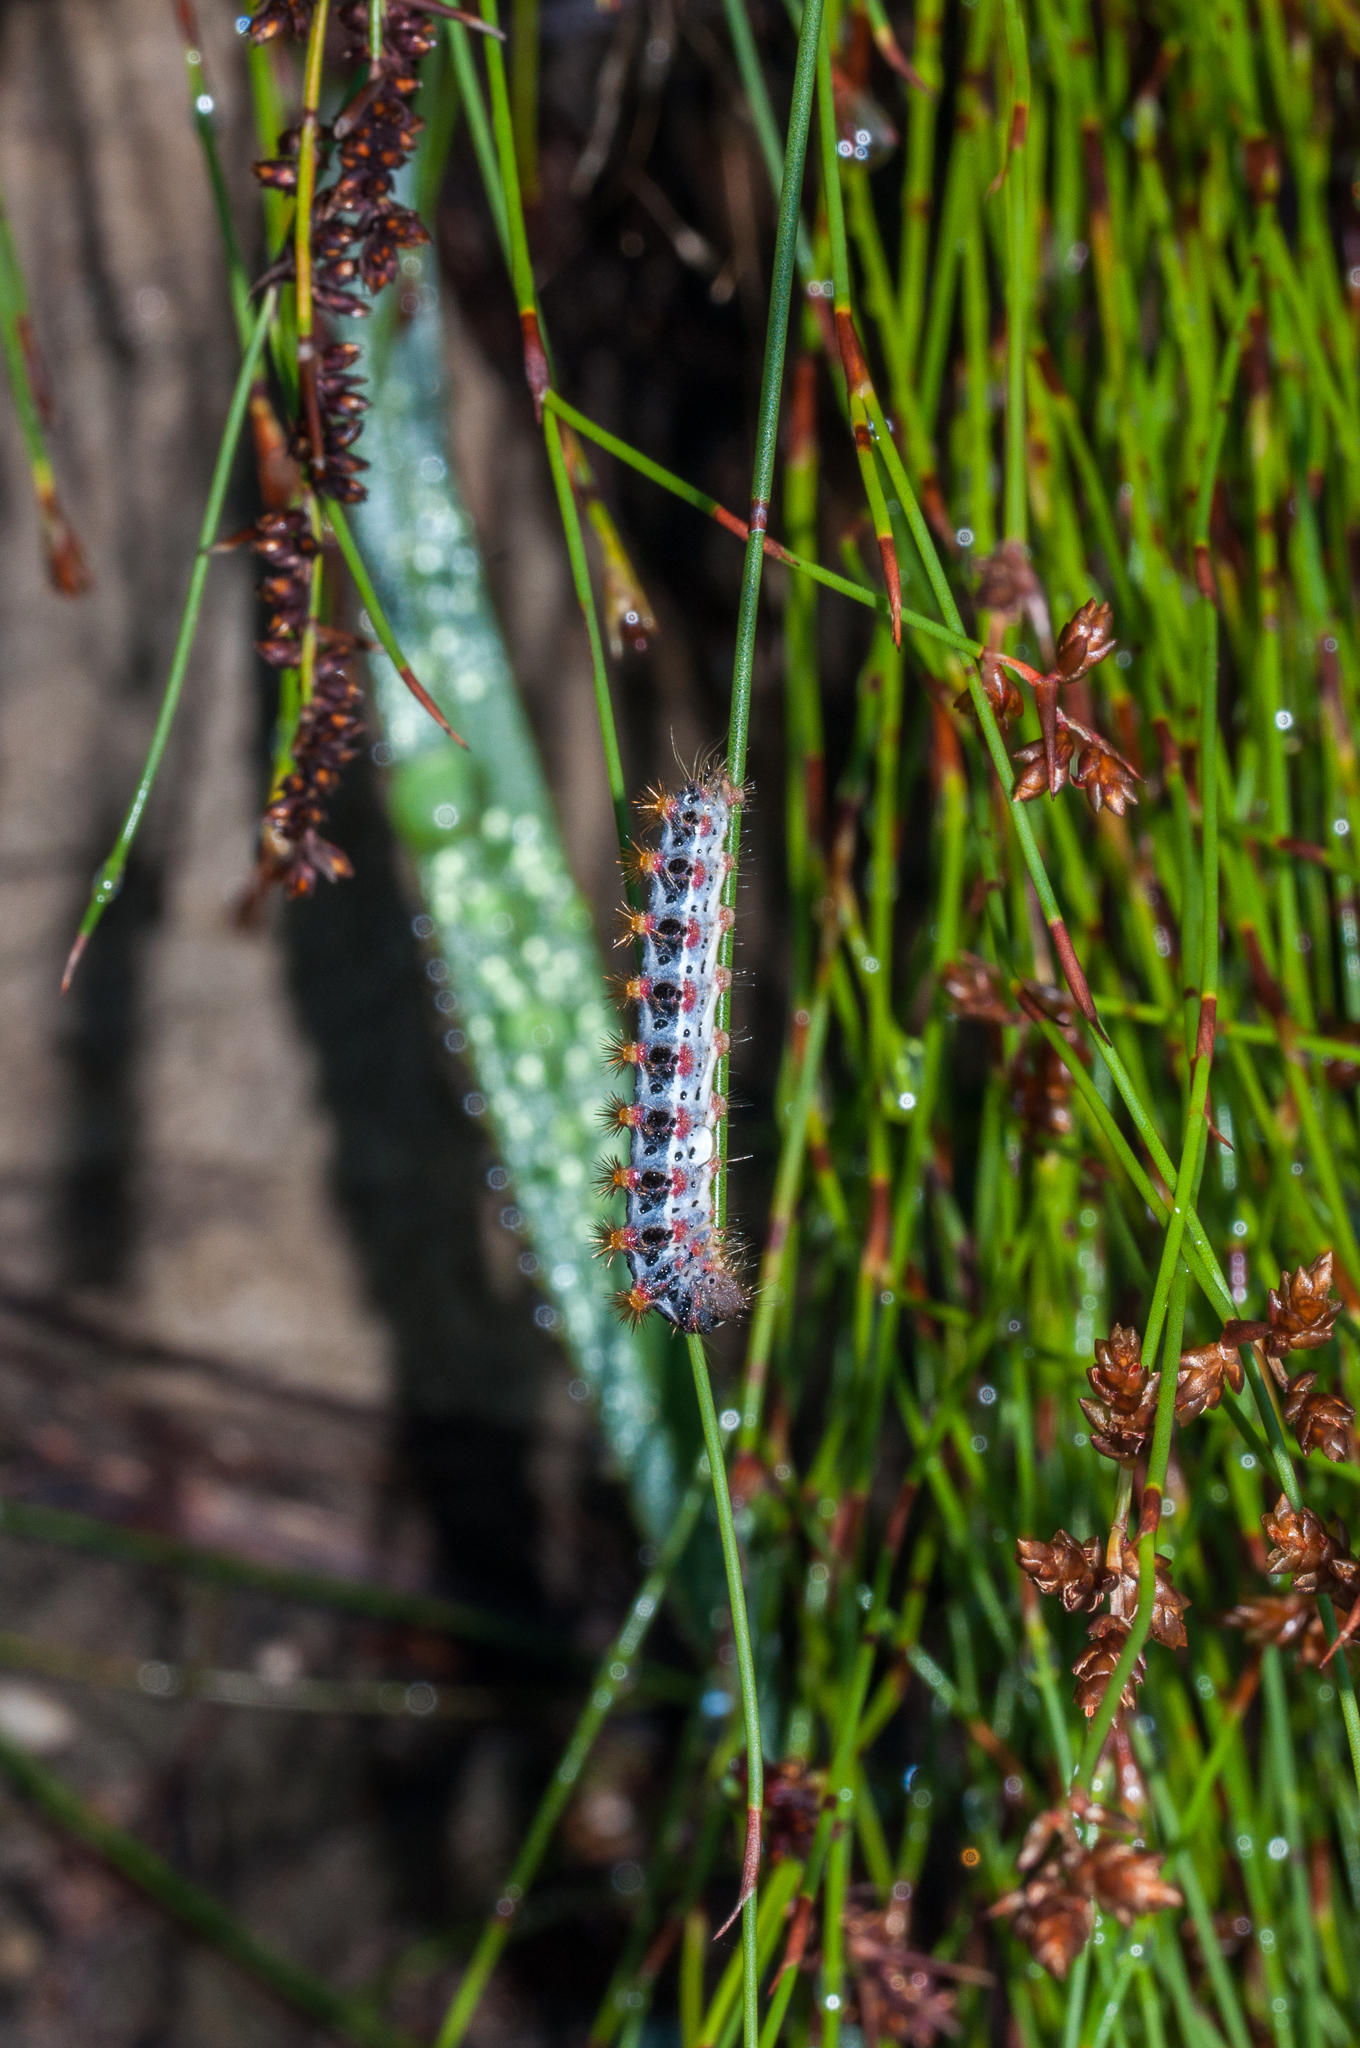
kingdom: Animalia
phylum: Arthropoda
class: Insecta
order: Lepidoptera
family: Somabrachyidae
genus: Psycharium
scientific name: Psycharium pellucens
